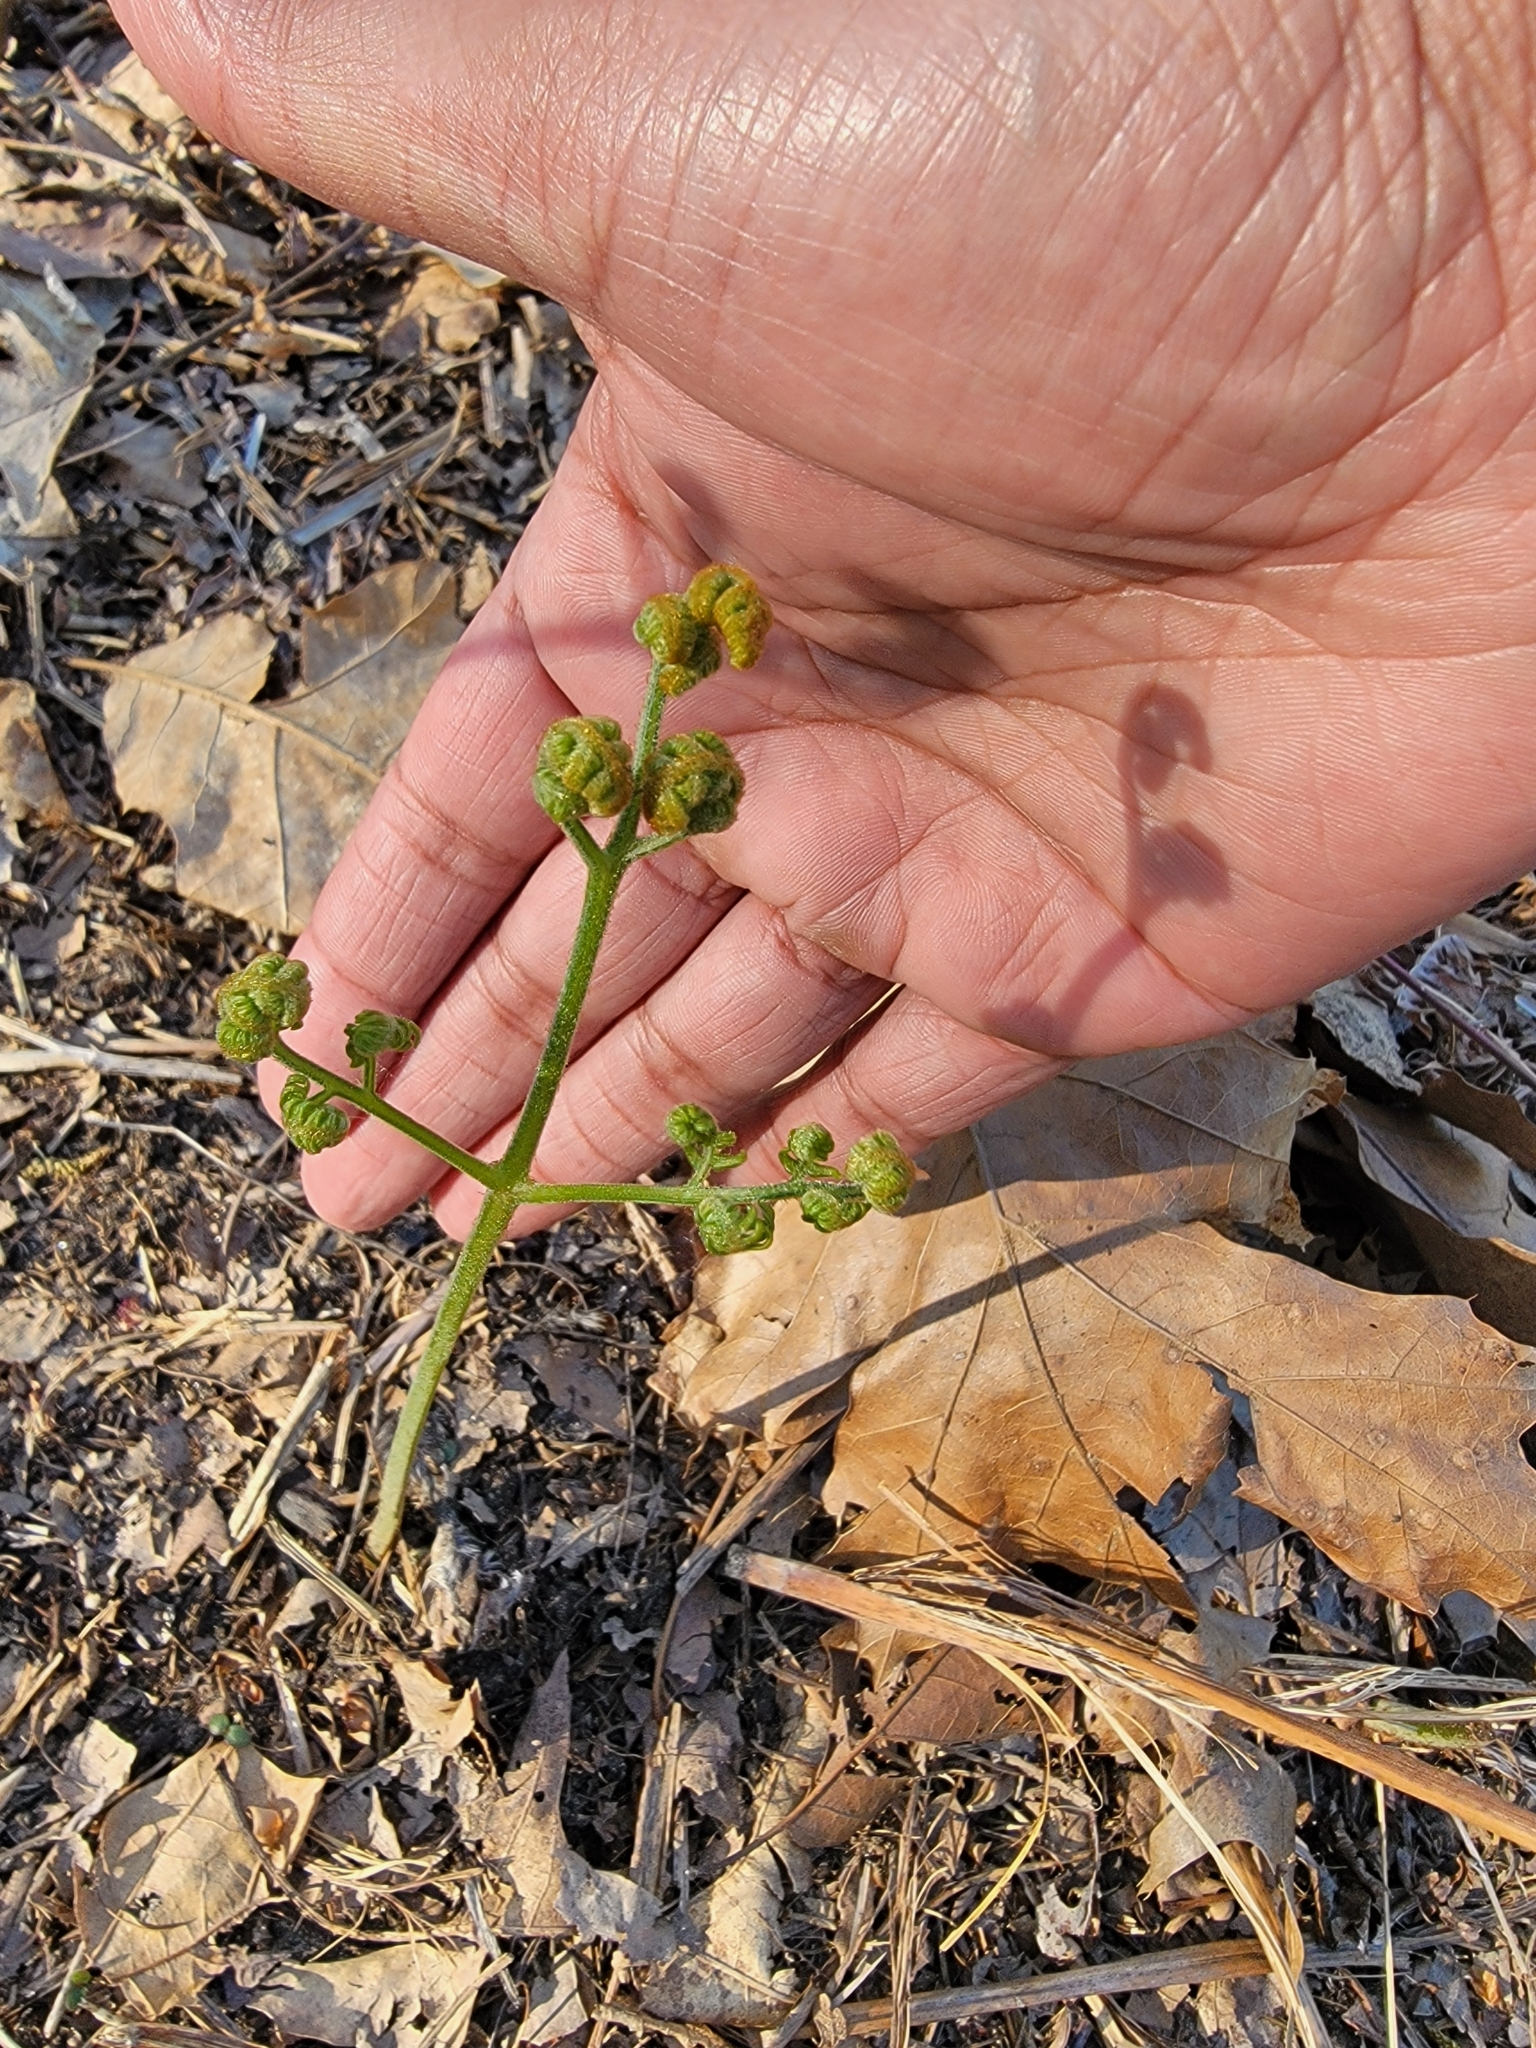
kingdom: Plantae
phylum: Tracheophyta
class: Polypodiopsida
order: Polypodiales
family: Dennstaedtiaceae
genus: Pteridium
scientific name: Pteridium aquilinum
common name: Bracken
